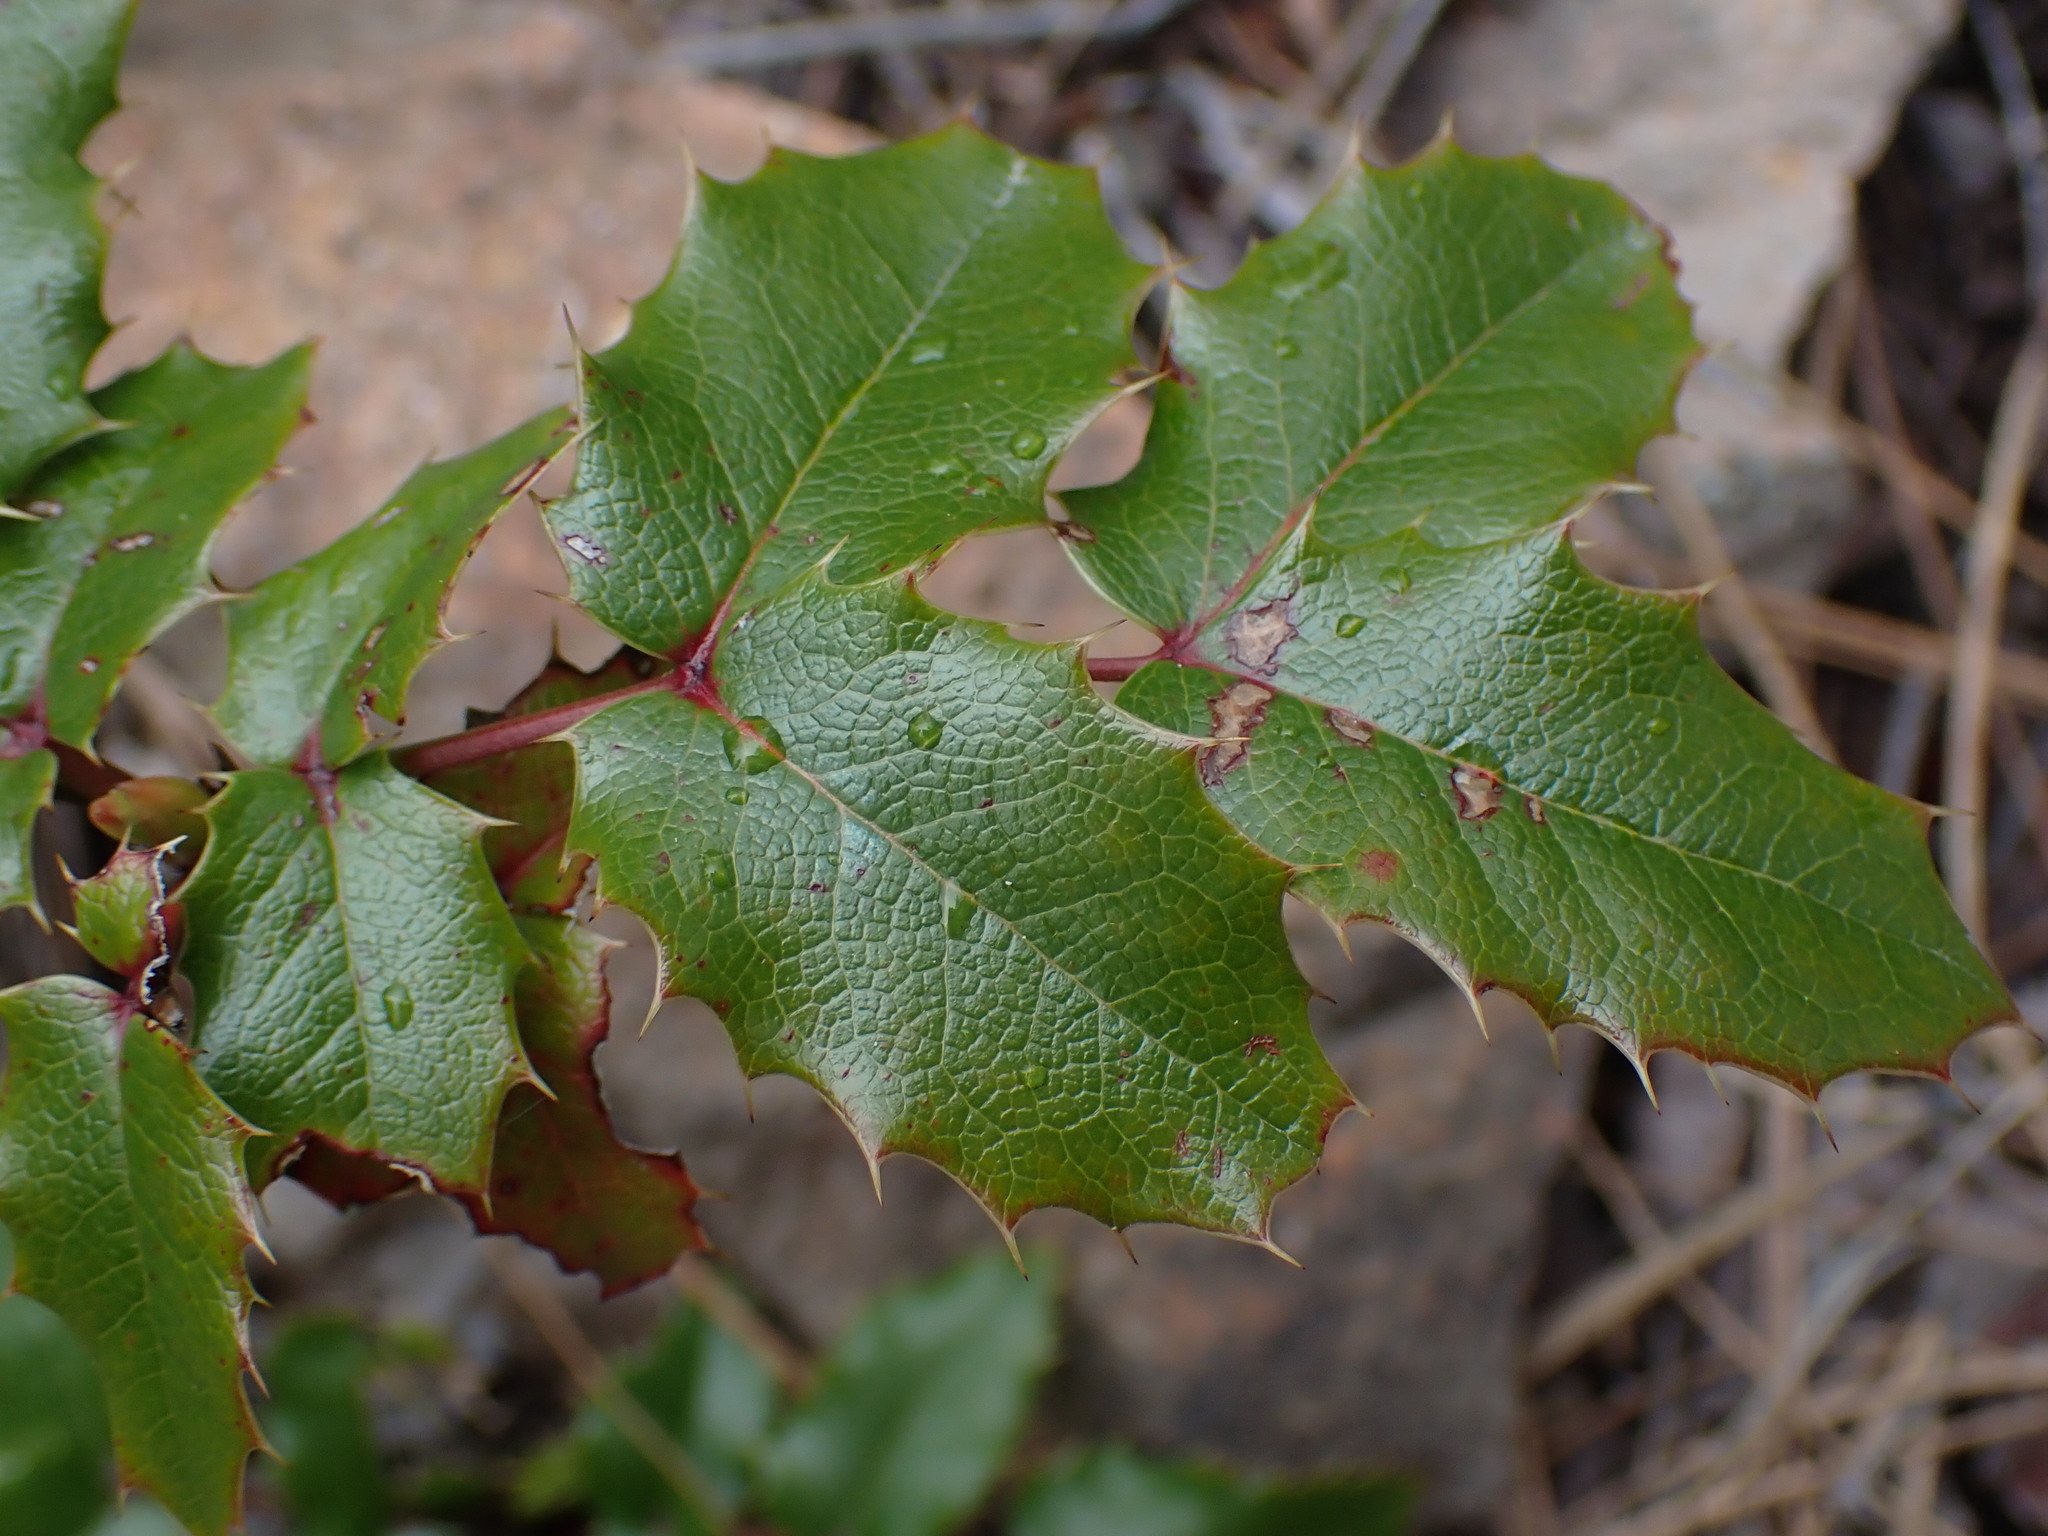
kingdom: Plantae
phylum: Tracheophyta
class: Magnoliopsida
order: Ranunculales
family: Berberidaceae
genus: Mahonia
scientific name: Mahonia aquifolium
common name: Oregon-grape
